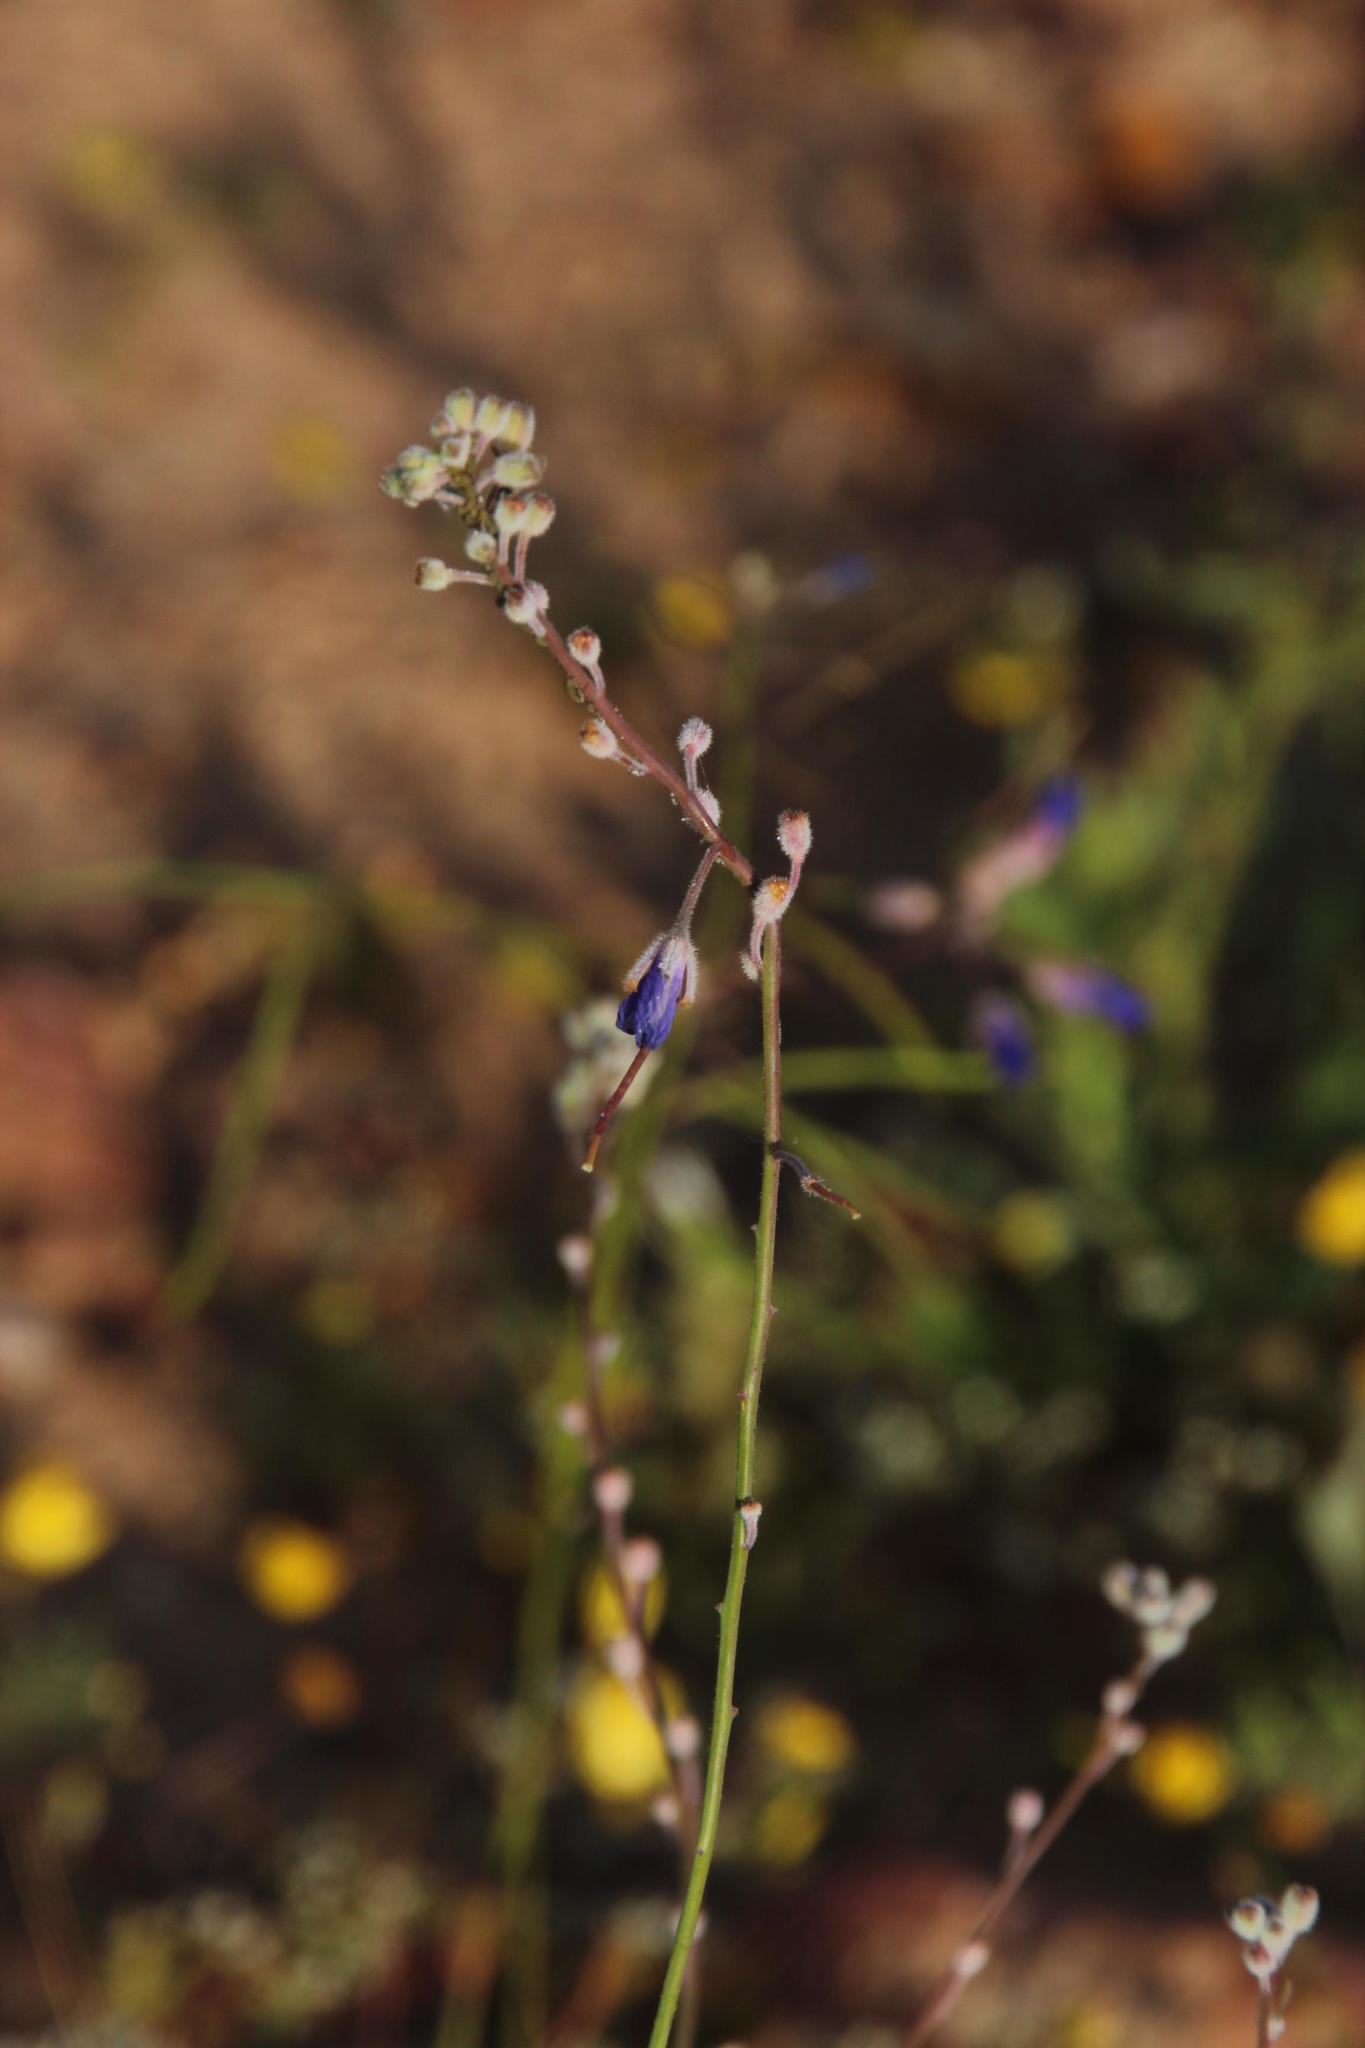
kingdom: Plantae
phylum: Tracheophyta
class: Magnoliopsida
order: Brassicales
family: Brassicaceae
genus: Heliophila
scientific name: Heliophila arenaria
